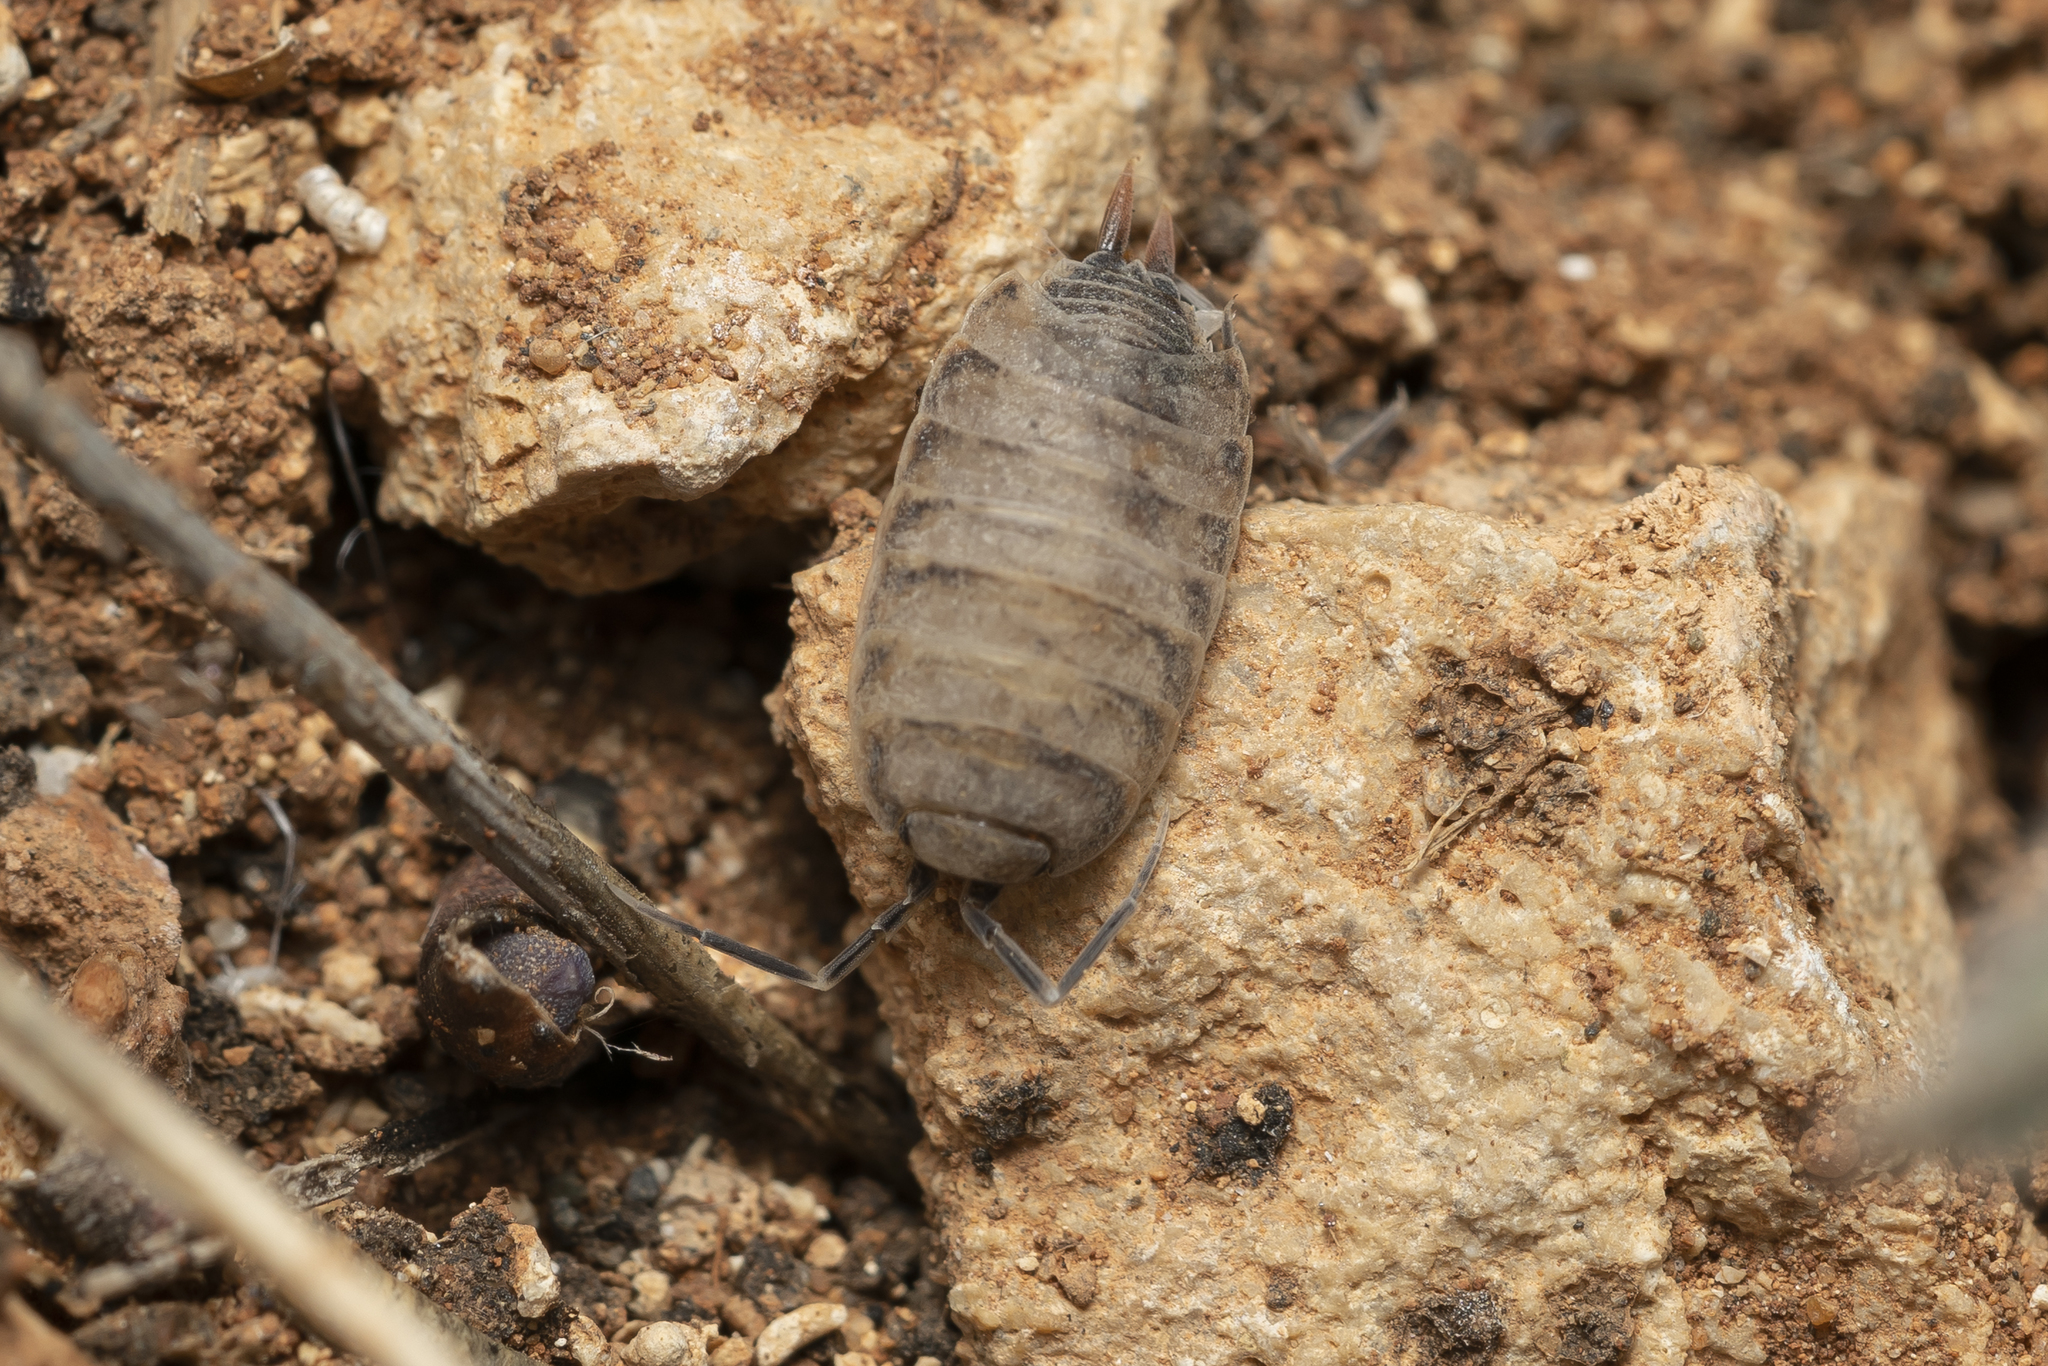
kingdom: Animalia
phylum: Arthropoda
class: Malacostraca
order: Isopoda
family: Porcellionidae
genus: Porcellionides
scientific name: Porcellionides pruinosus
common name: Plum woodlouse
